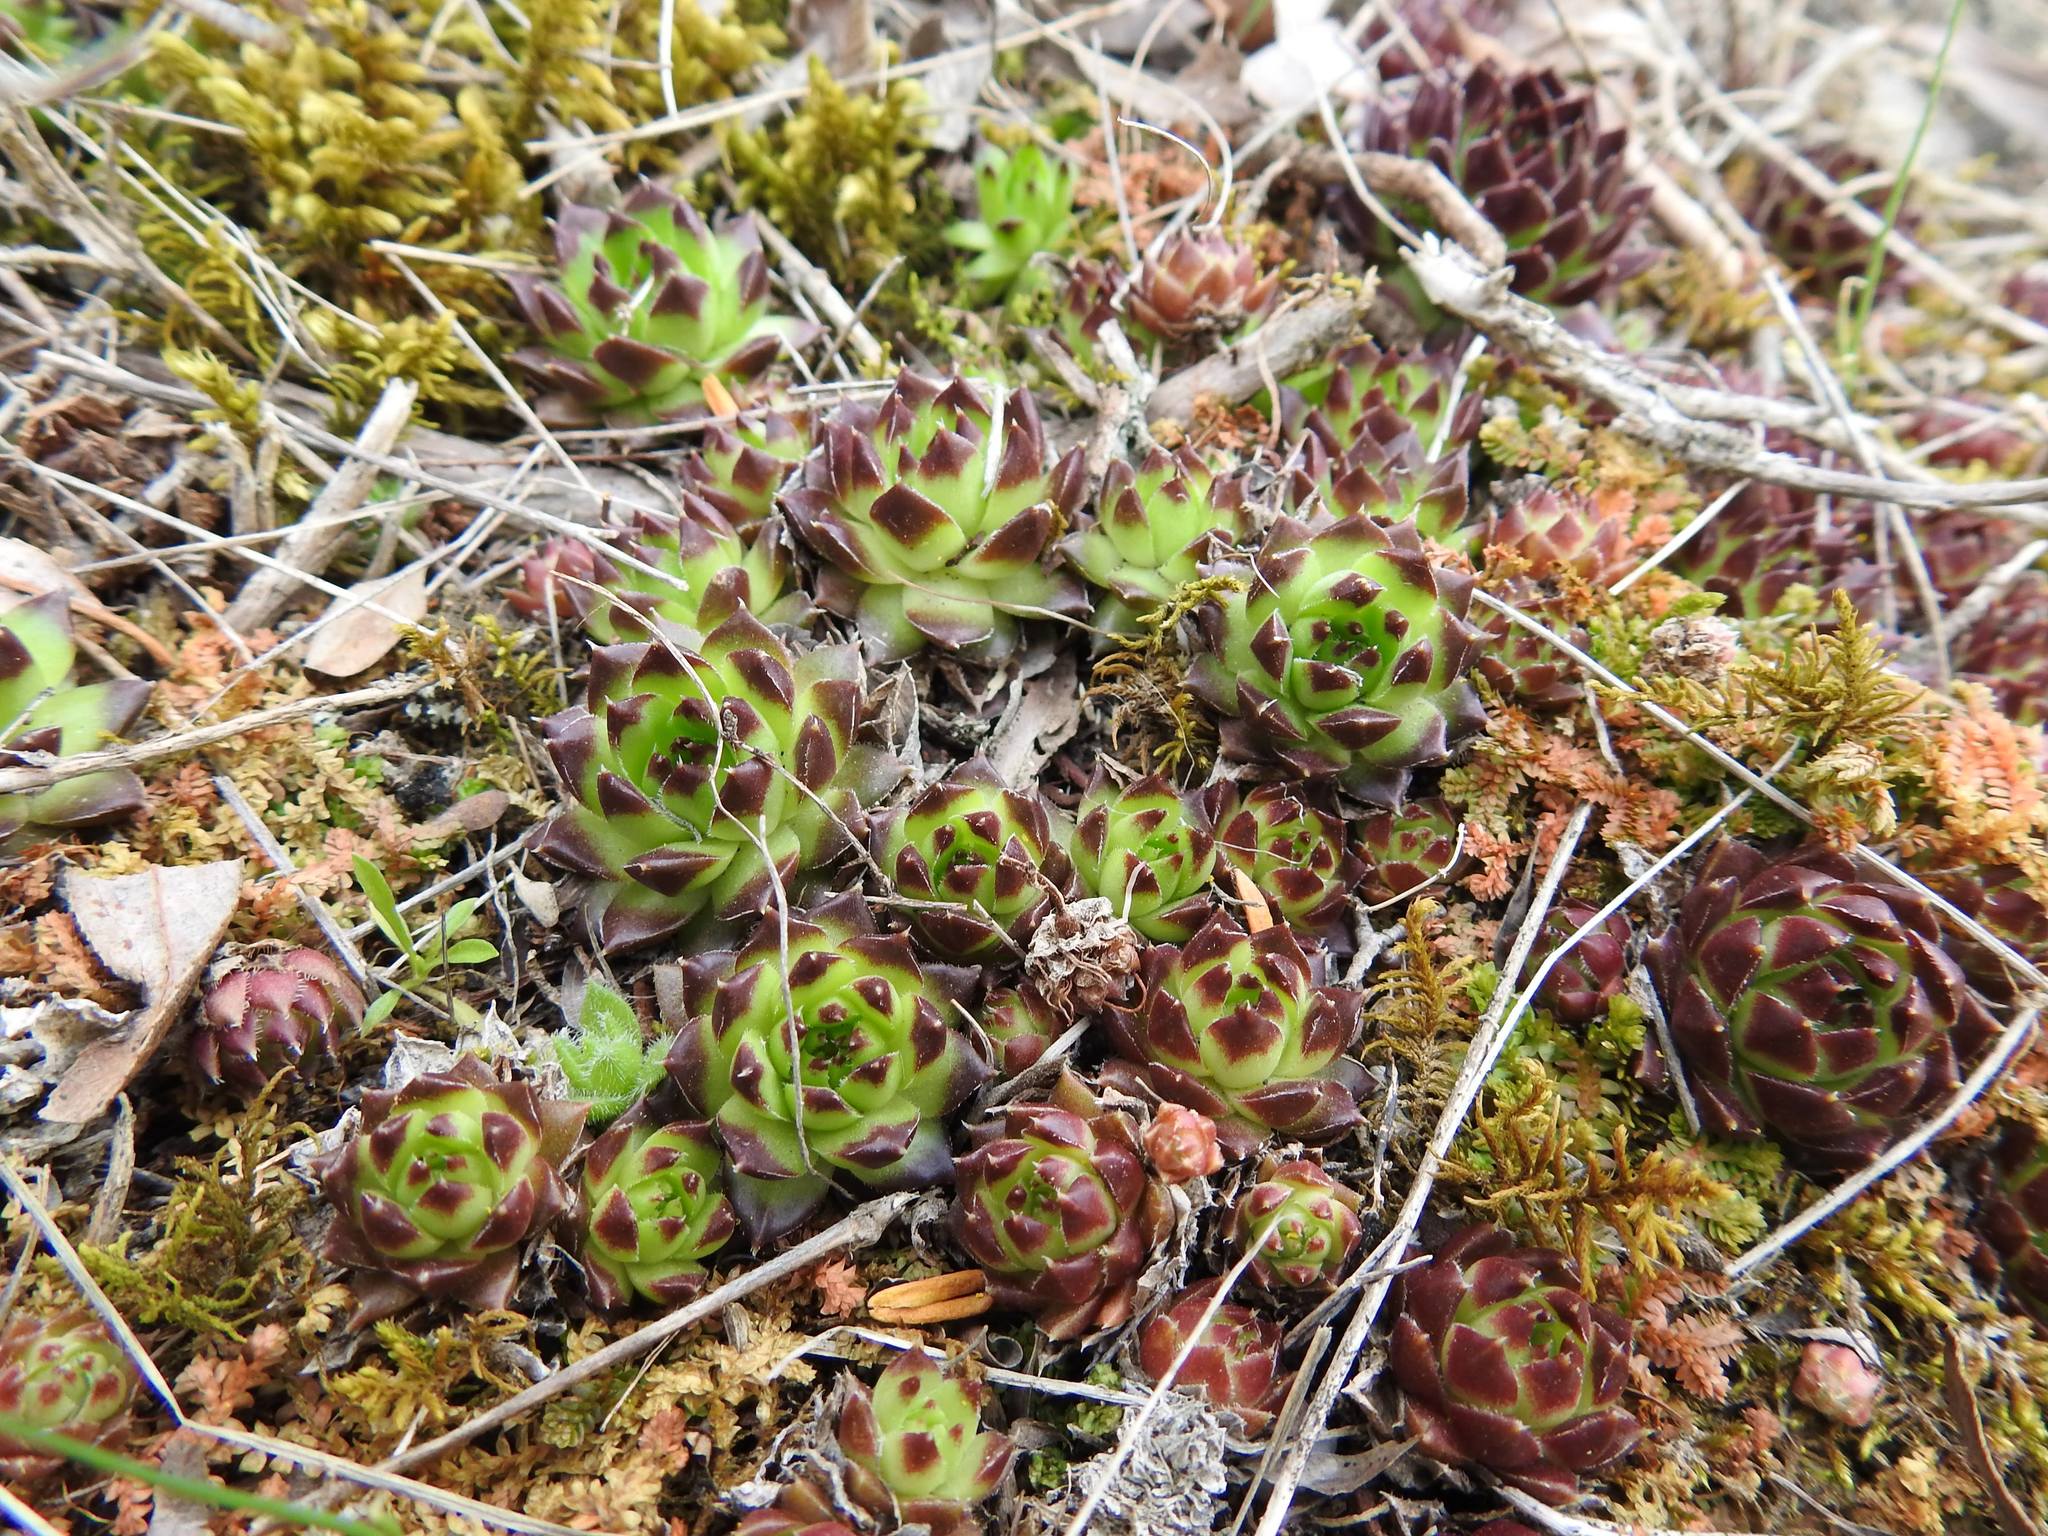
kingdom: Plantae
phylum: Tracheophyta
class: Magnoliopsida
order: Saxifragales
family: Crassulaceae
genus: Sempervivum
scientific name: Sempervivum caucasicum
